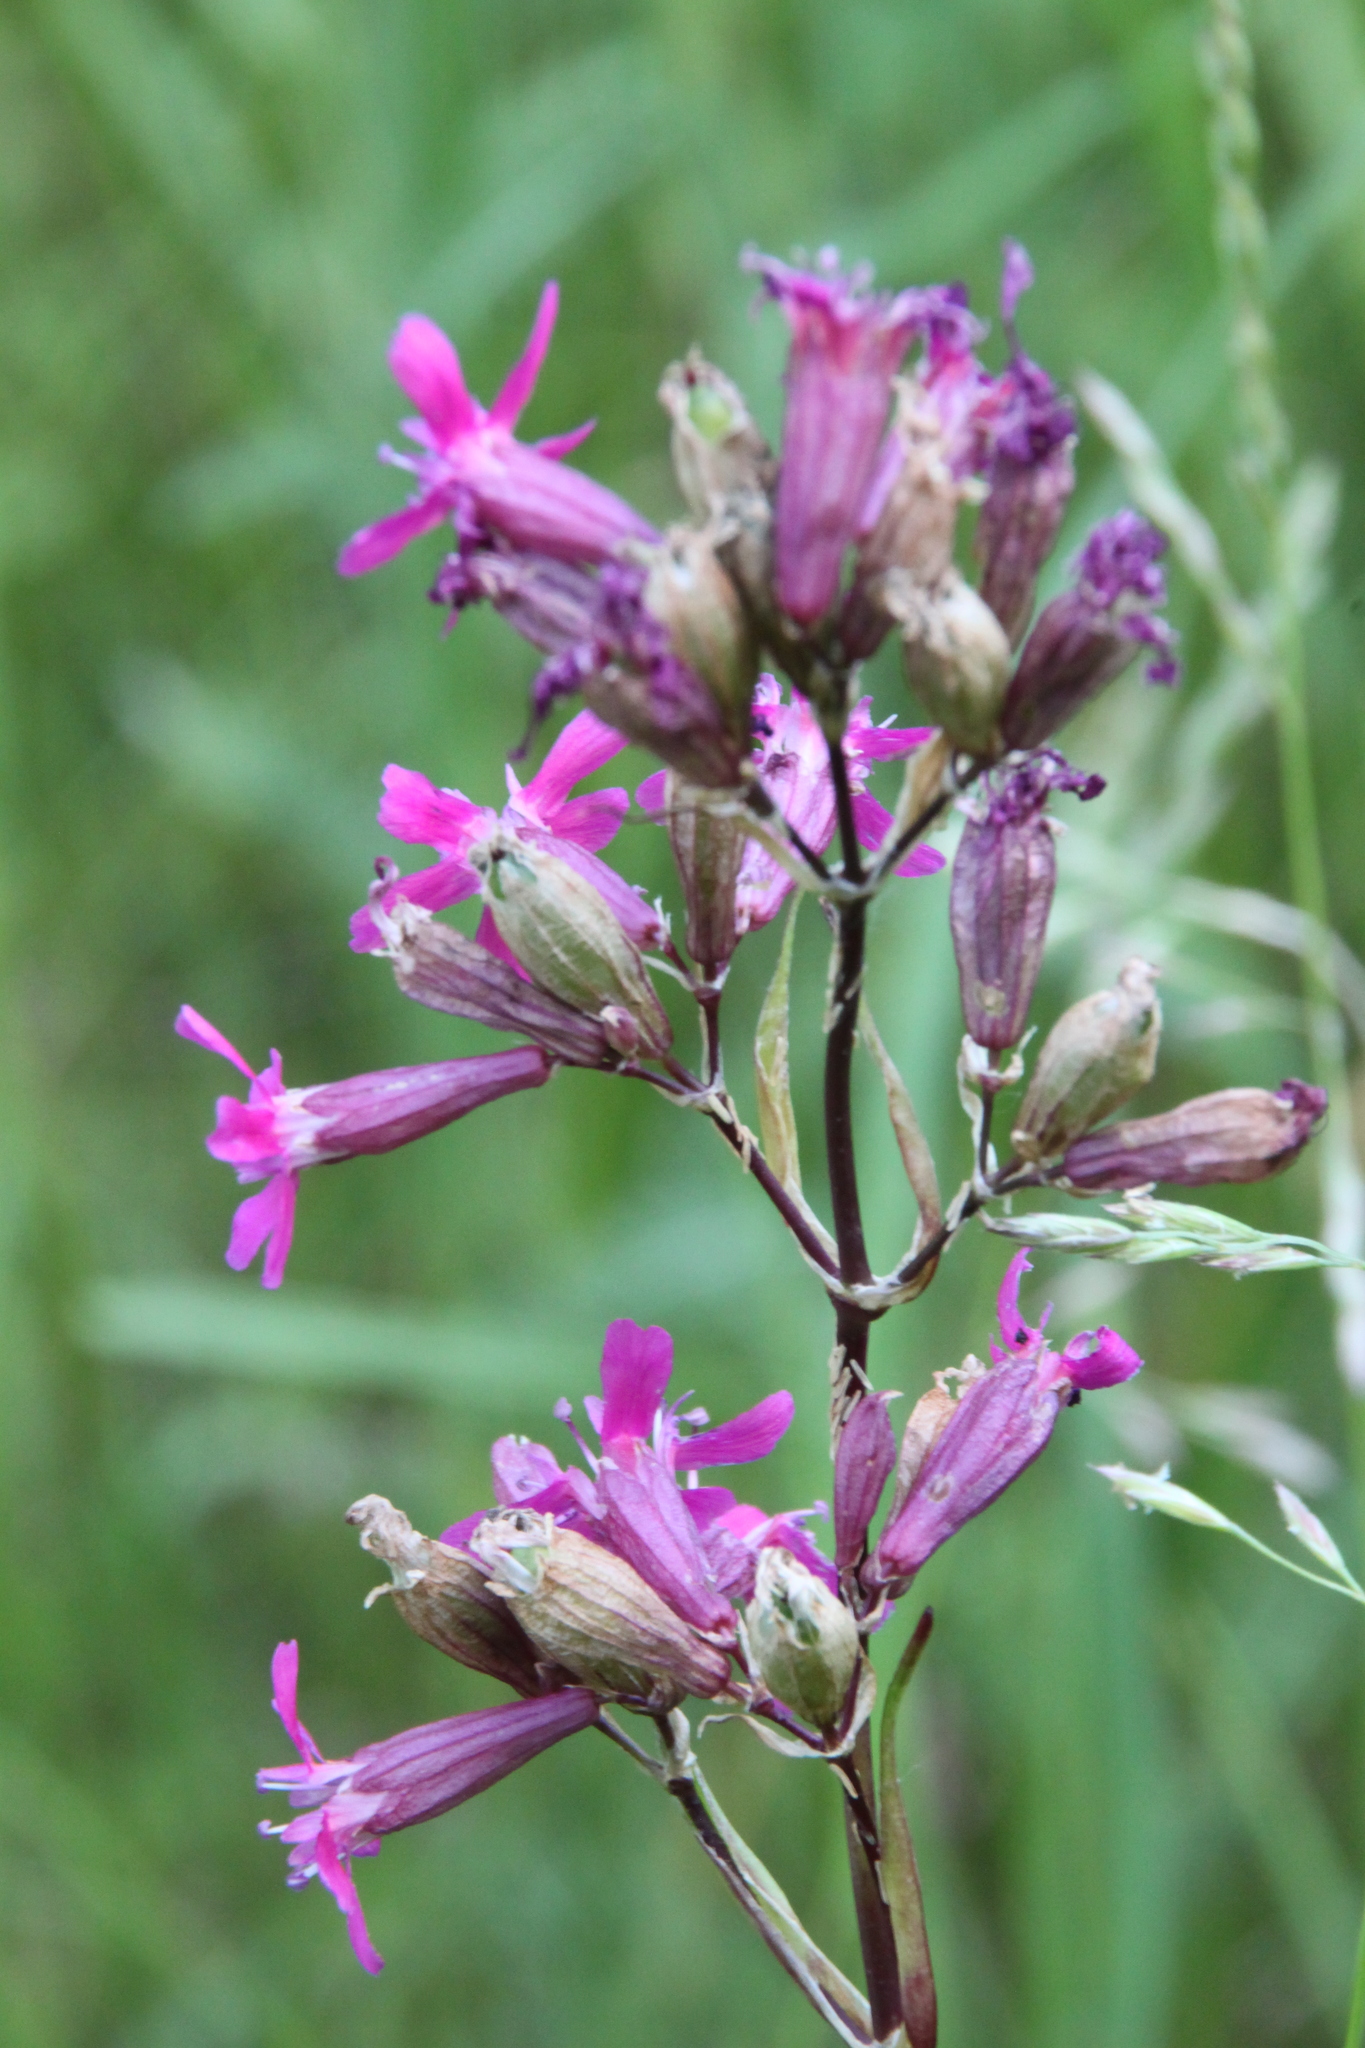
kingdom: Plantae
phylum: Tracheophyta
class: Magnoliopsida
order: Caryophyllales
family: Caryophyllaceae
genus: Viscaria
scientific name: Viscaria vulgaris
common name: Clammy campion
